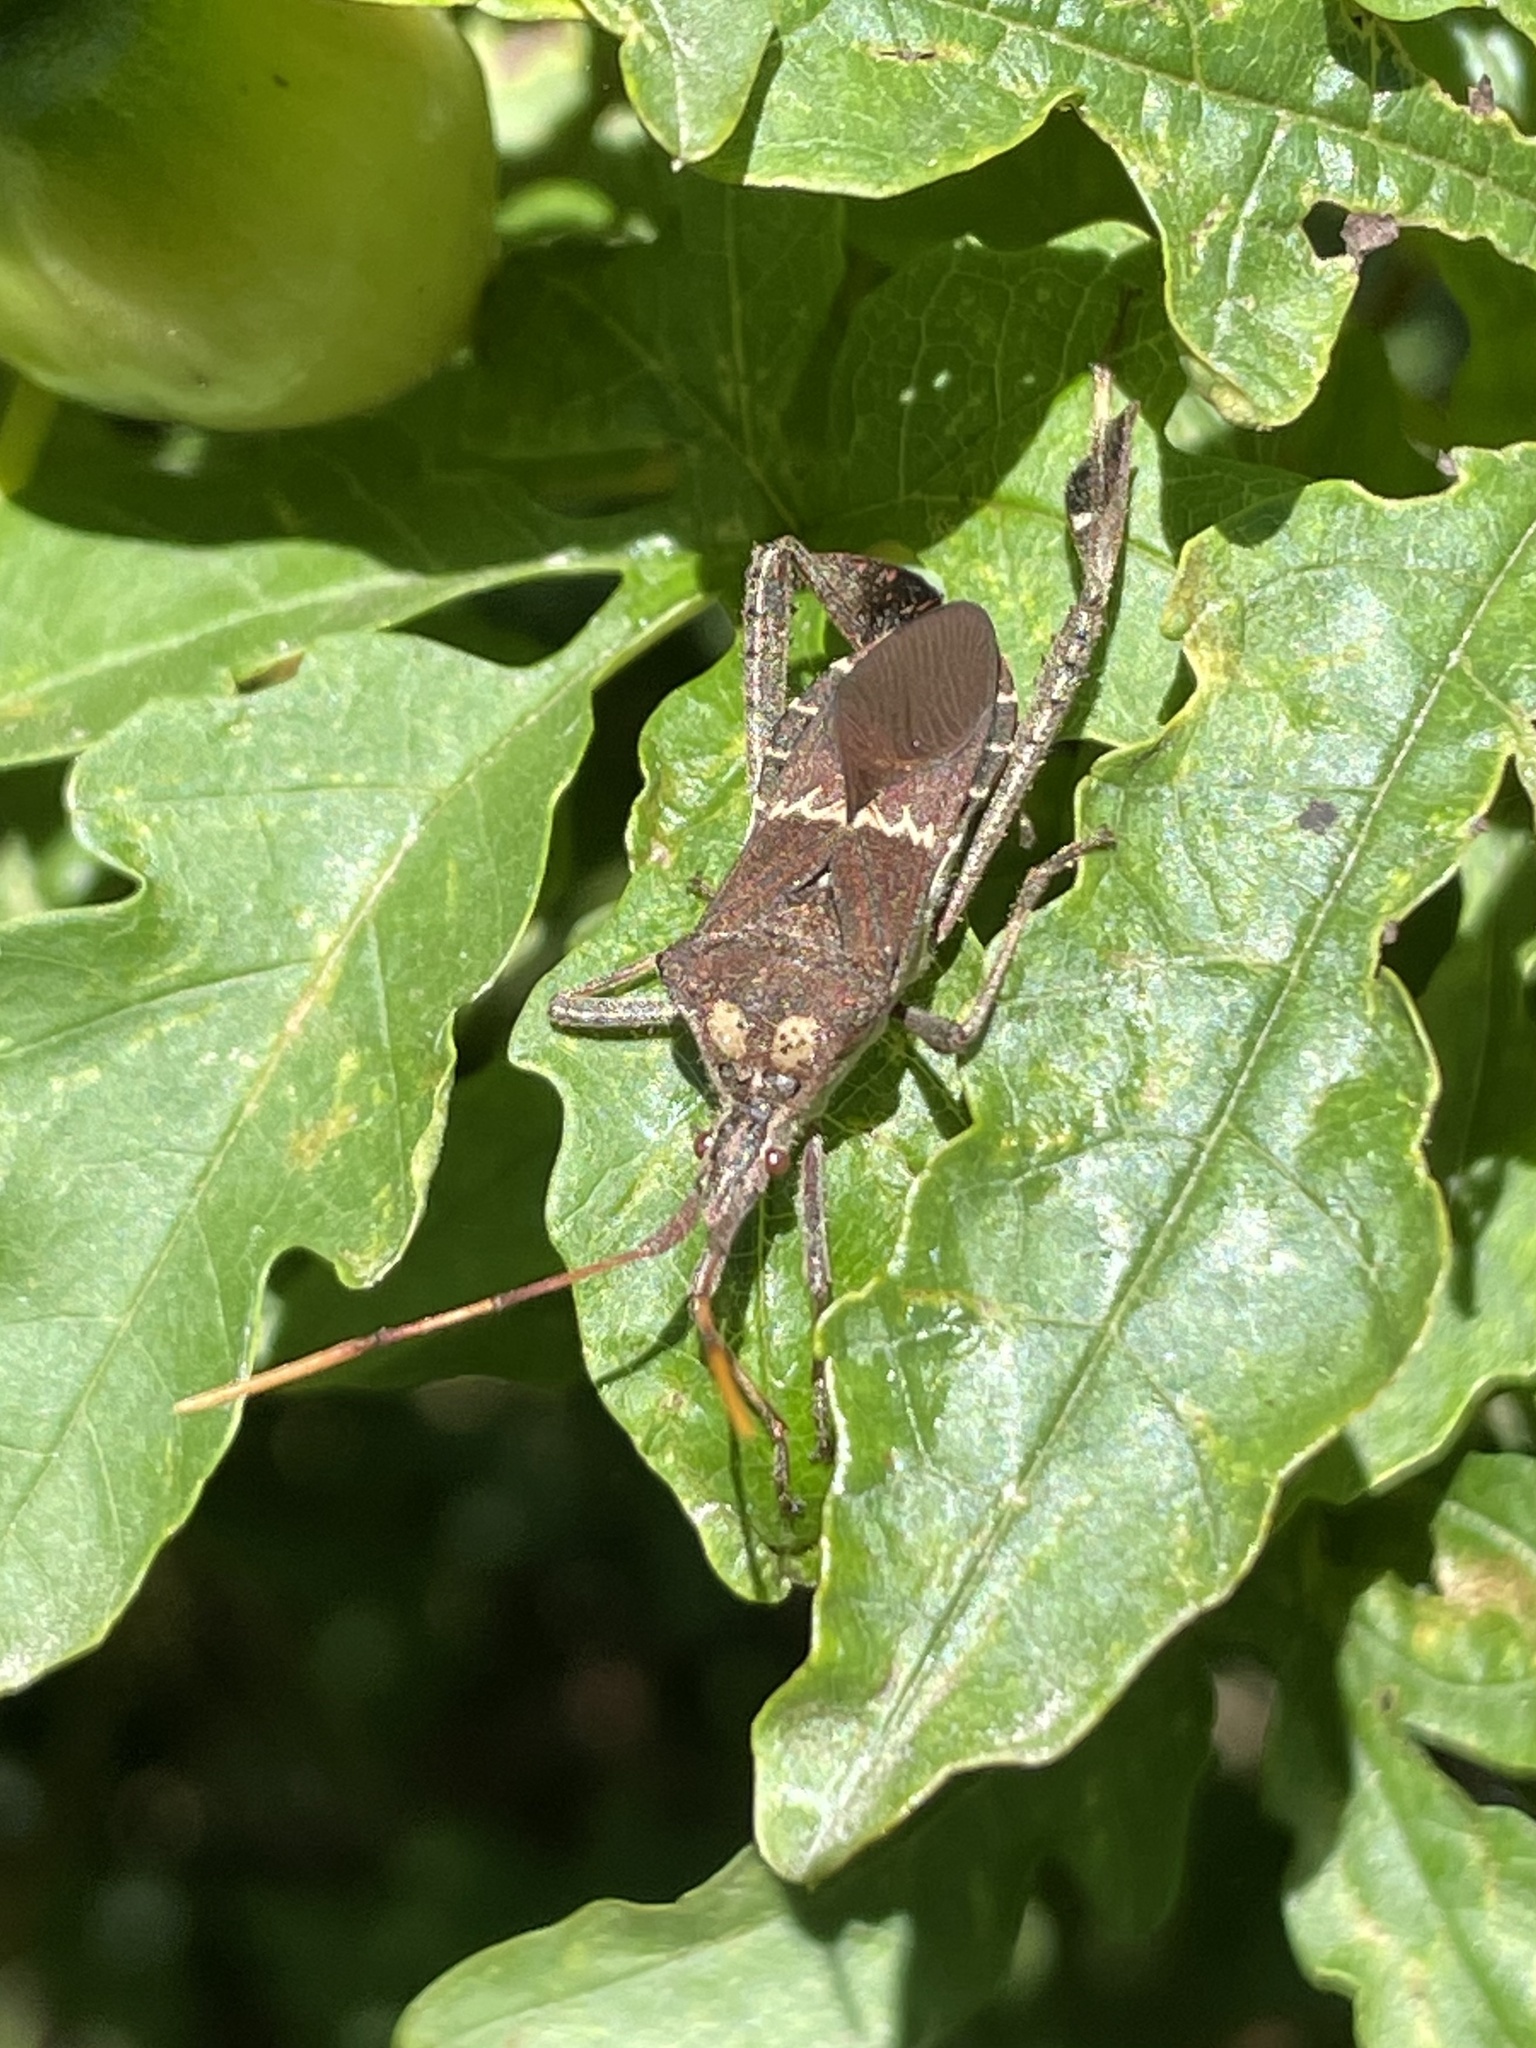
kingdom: Animalia
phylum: Arthropoda
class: Insecta
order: Hemiptera
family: Coreidae
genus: Leptoglossus
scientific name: Leptoglossus zonatus
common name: Large-legged bug
